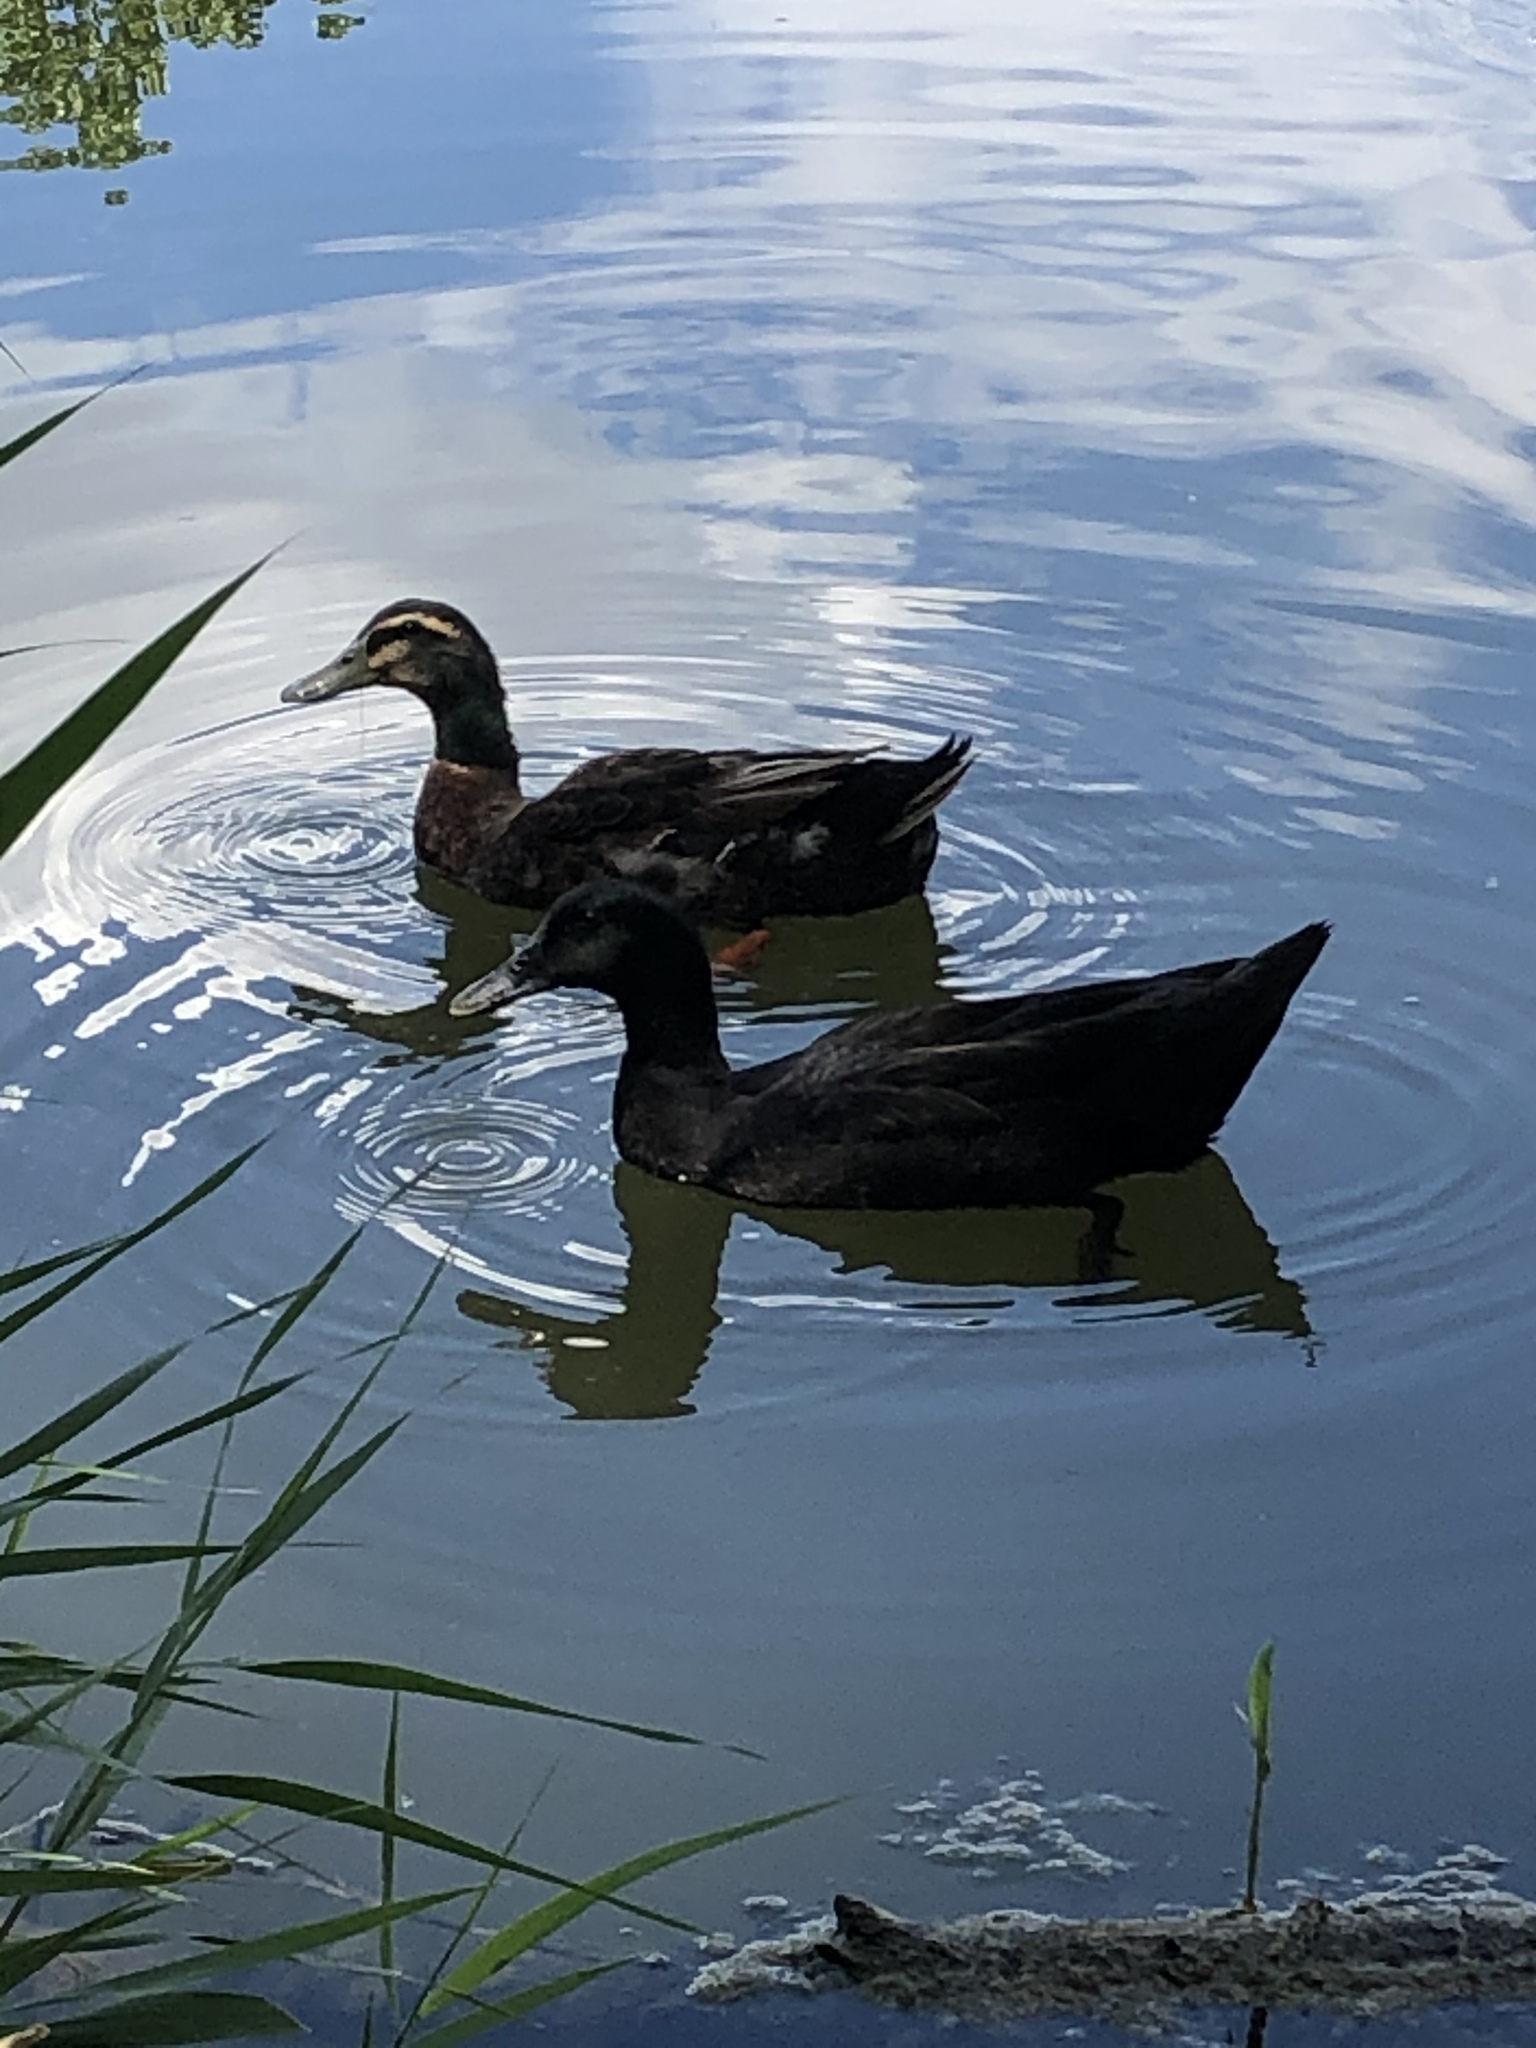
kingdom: Animalia
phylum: Chordata
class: Aves
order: Anseriformes
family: Anatidae
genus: Anas
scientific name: Anas platyrhynchos
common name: Mallard
